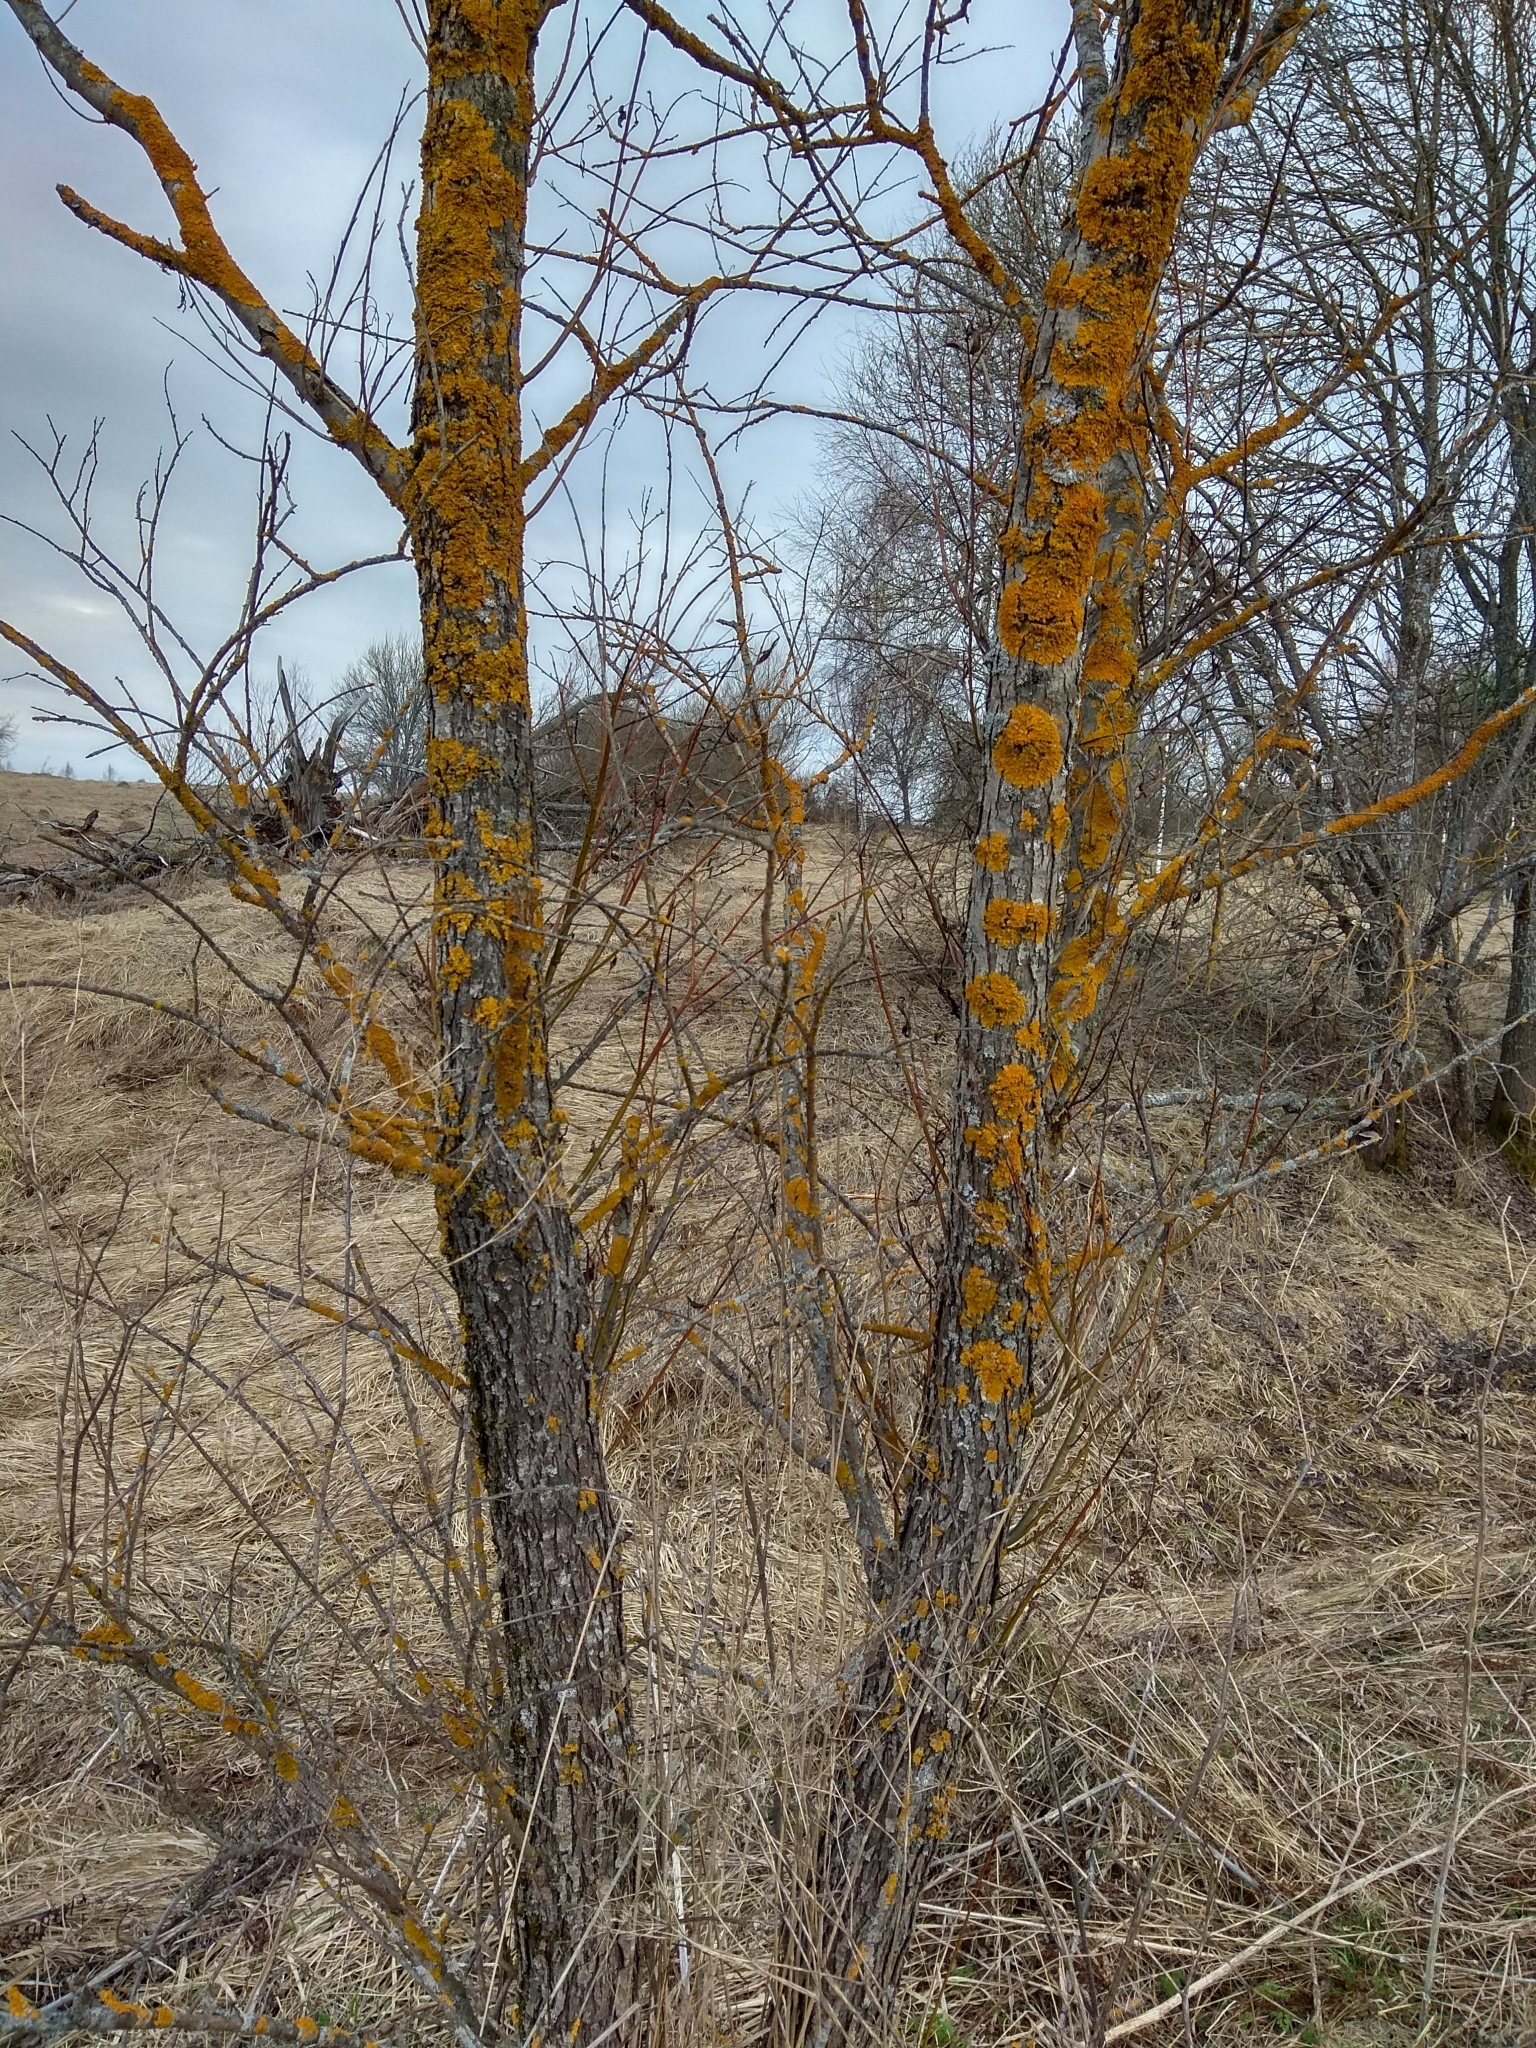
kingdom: Fungi
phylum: Ascomycota
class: Lecanoromycetes
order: Teloschistales
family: Teloschistaceae
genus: Xanthoria
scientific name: Xanthoria parietina
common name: Common orange lichen
